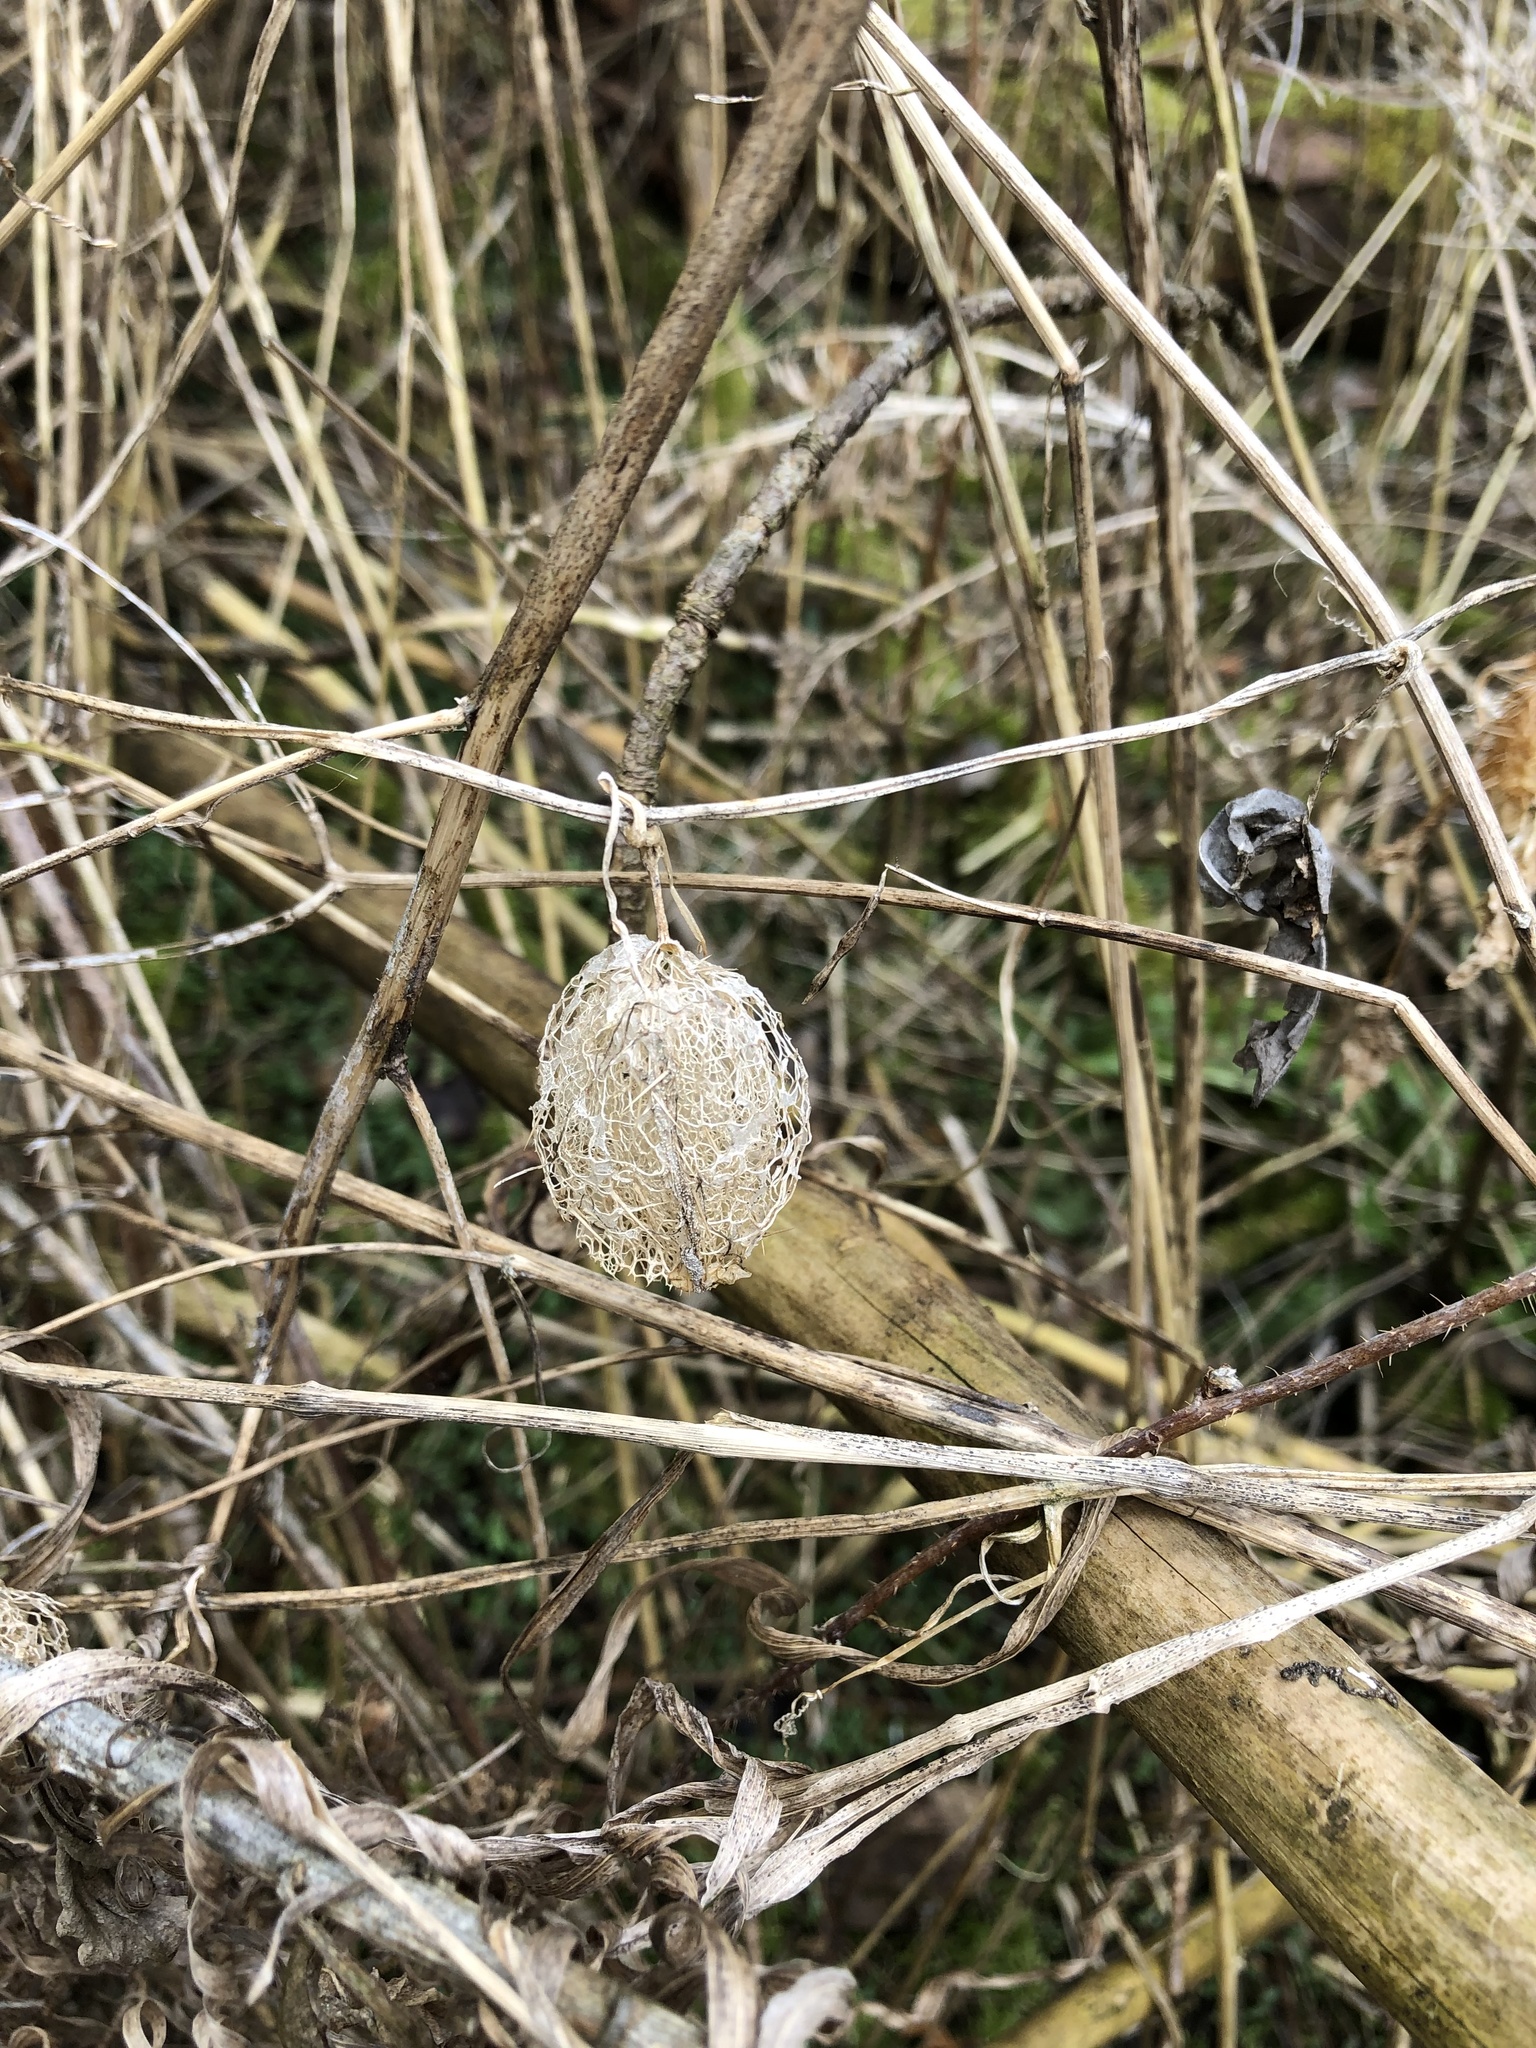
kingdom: Plantae
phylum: Tracheophyta
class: Magnoliopsida
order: Cucurbitales
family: Cucurbitaceae
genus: Echinocystis
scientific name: Echinocystis lobata
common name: Wild cucumber
